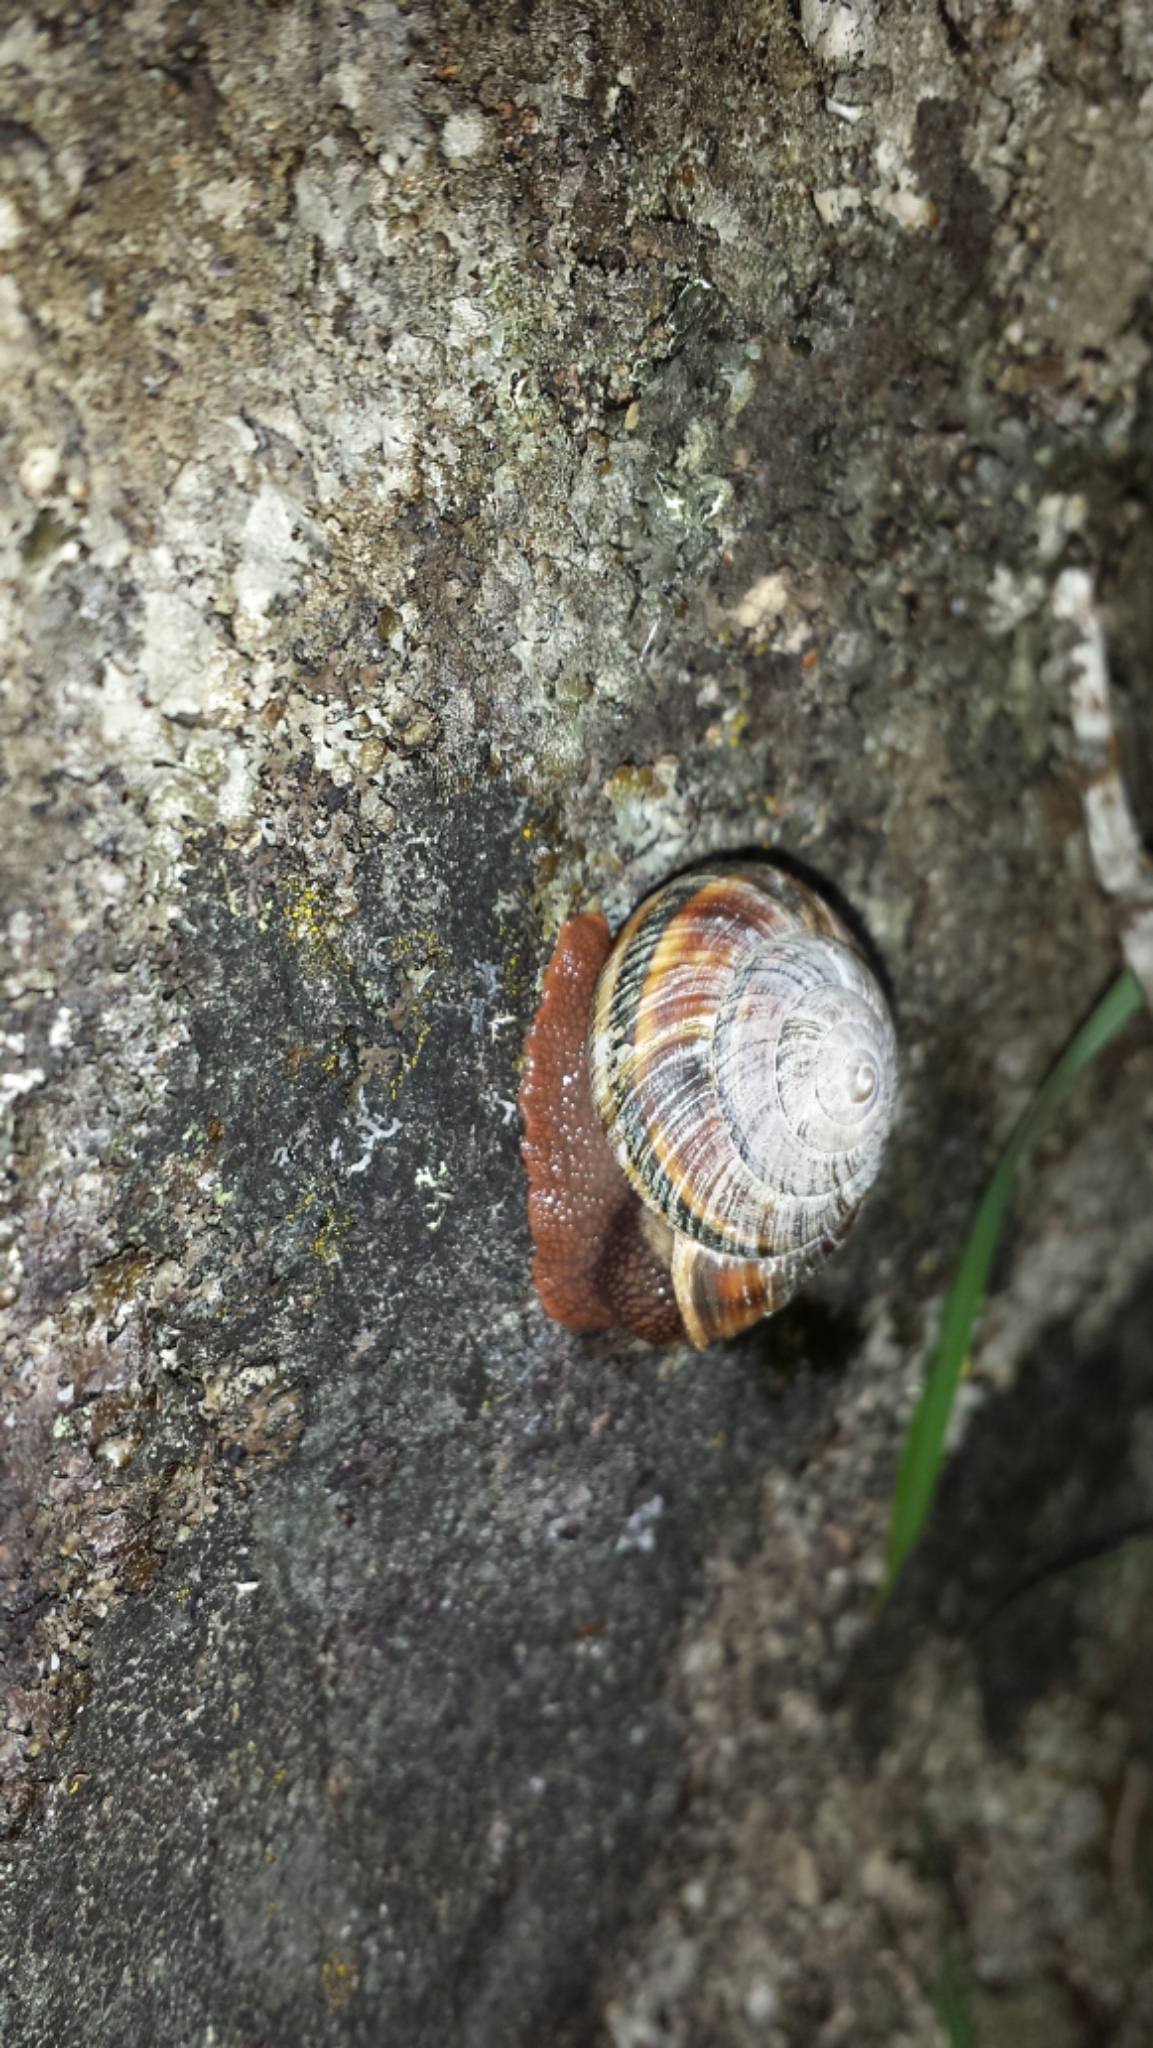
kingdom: Animalia
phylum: Mollusca
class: Gastropoda
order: Stylommatophora
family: Xanthonychidae
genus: Monadenia
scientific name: Monadenia fidelis
